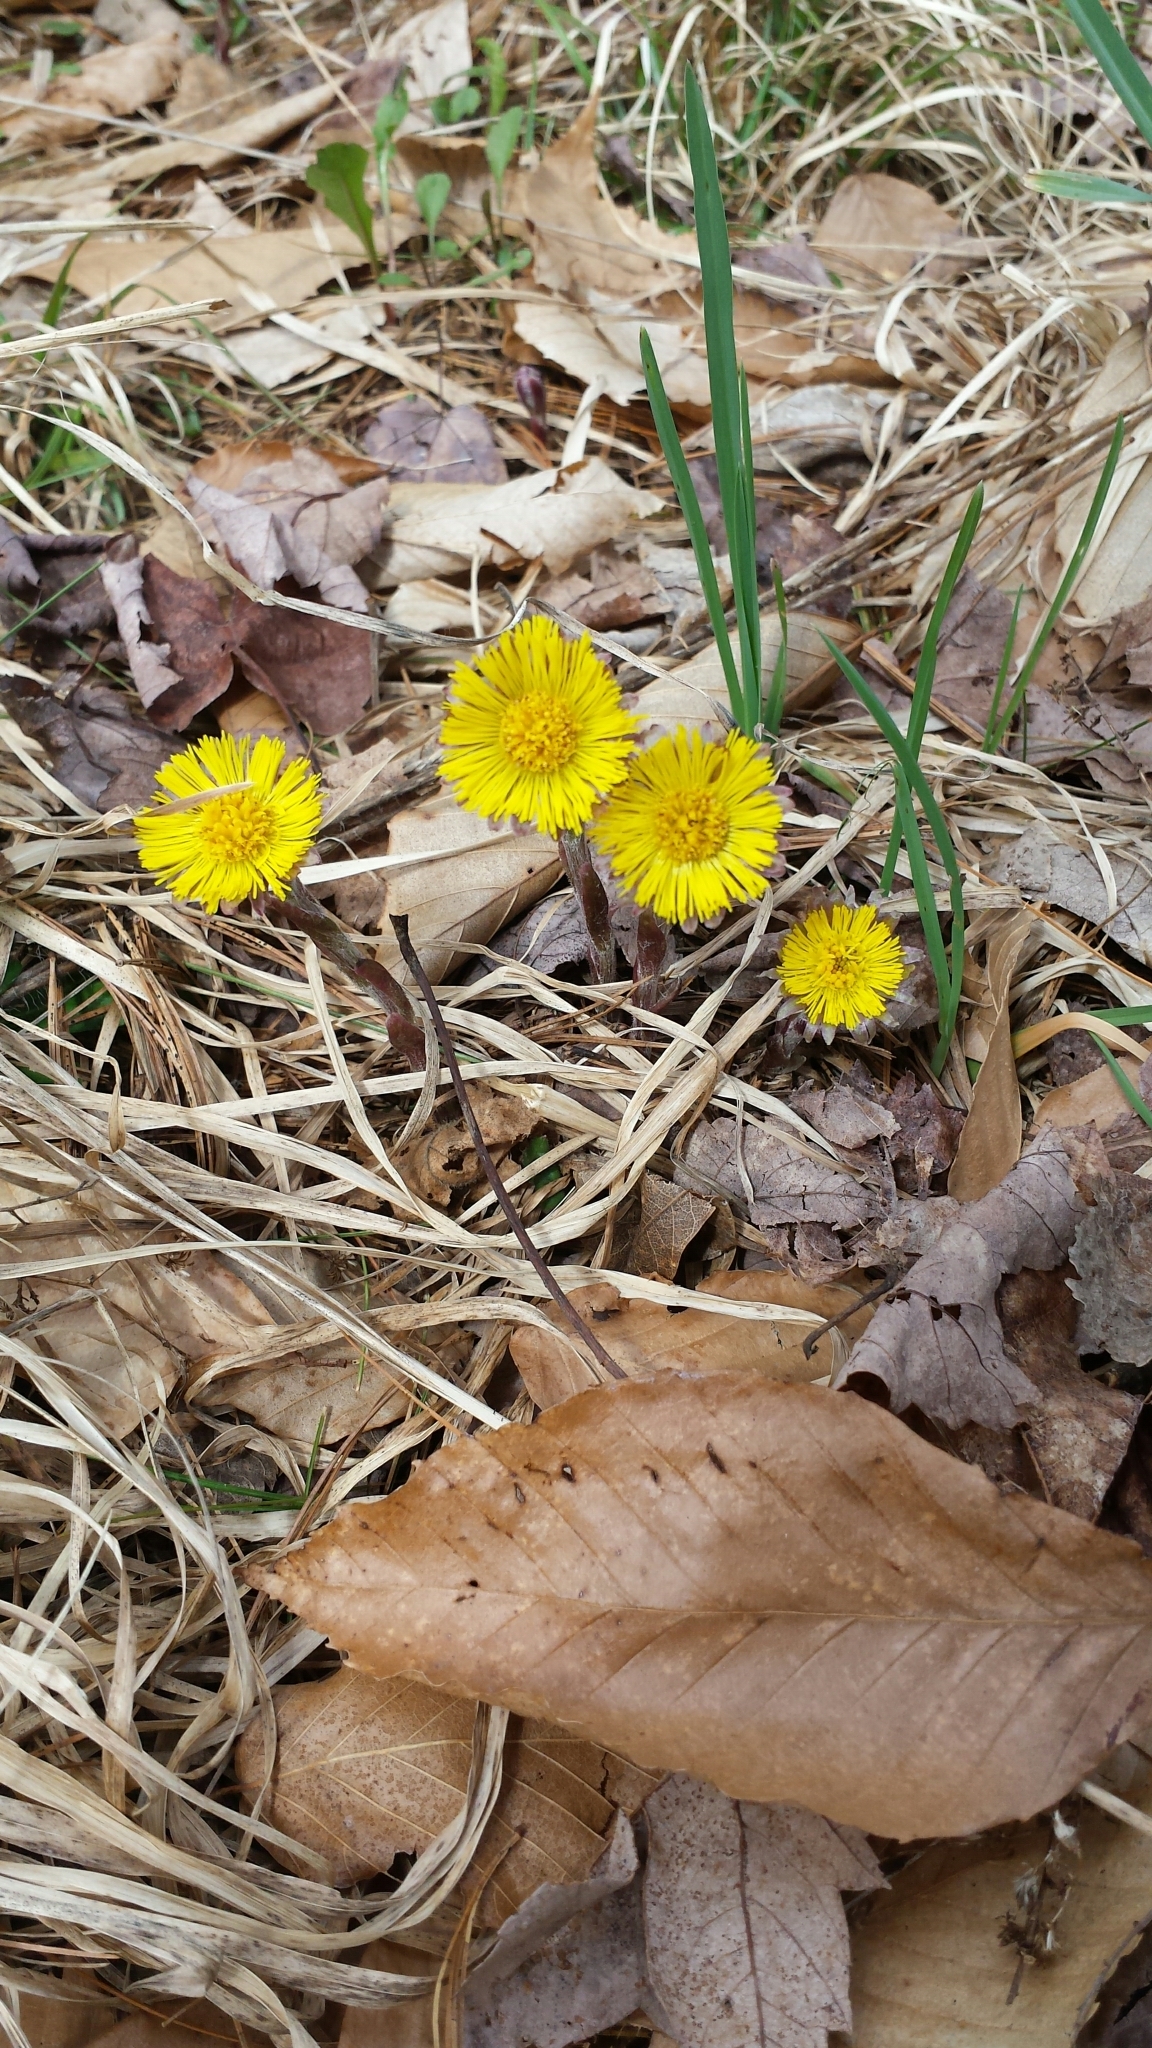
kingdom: Plantae
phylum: Tracheophyta
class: Magnoliopsida
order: Asterales
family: Asteraceae
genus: Tussilago
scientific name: Tussilago farfara
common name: Coltsfoot
